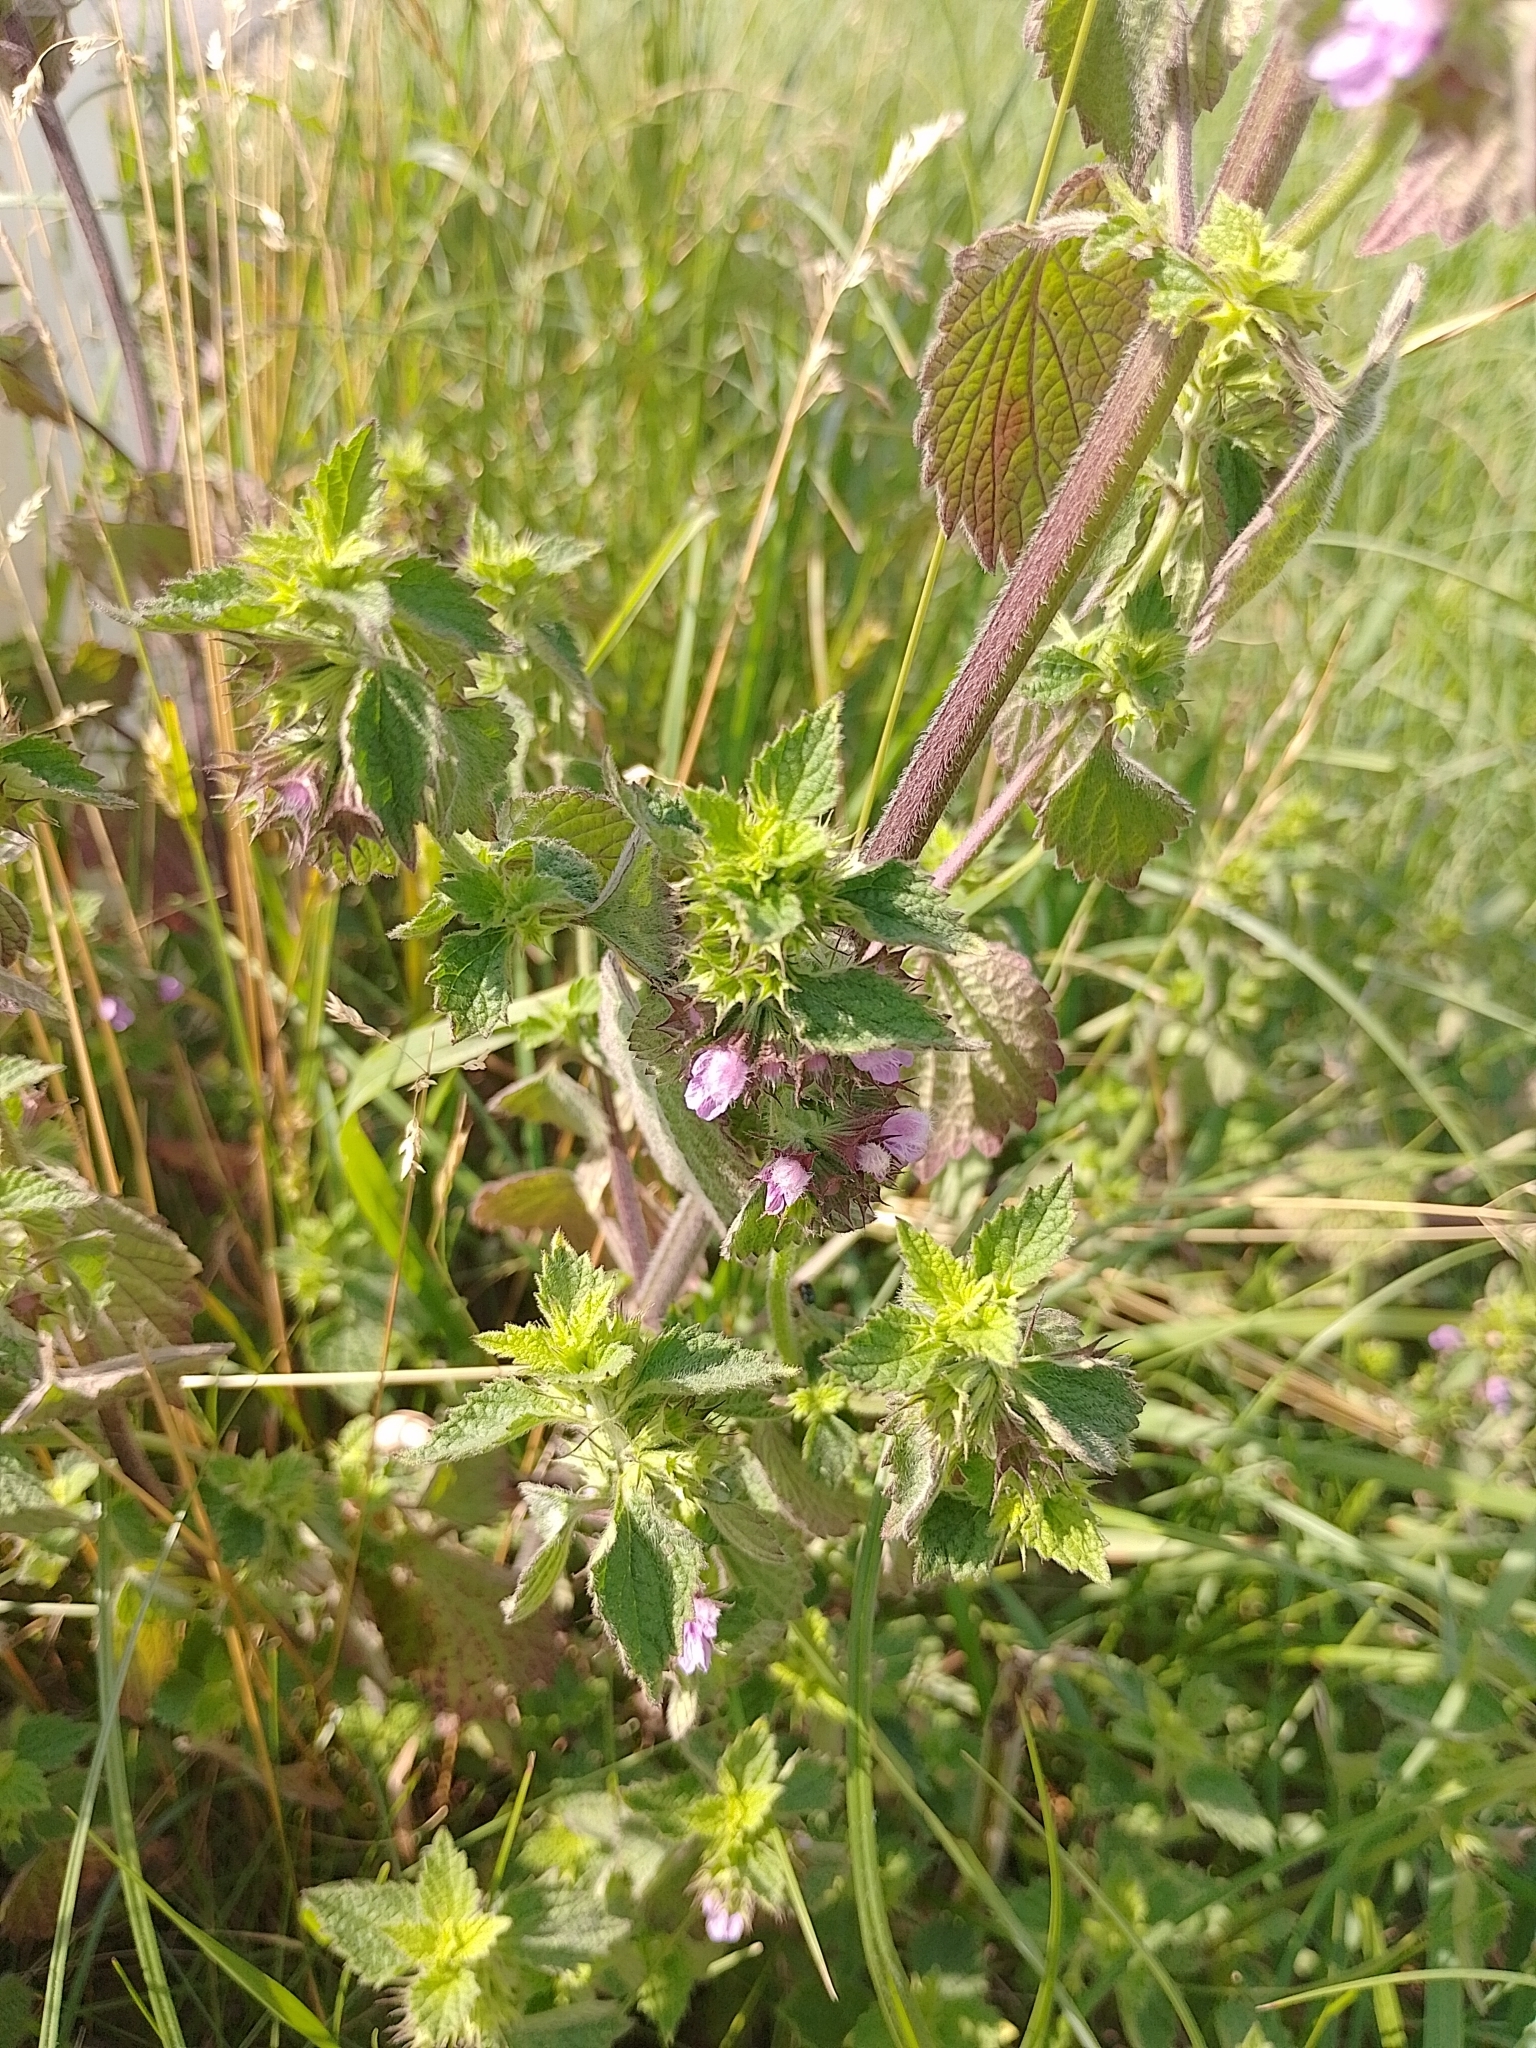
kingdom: Plantae
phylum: Tracheophyta
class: Magnoliopsida
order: Lamiales
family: Lamiaceae
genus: Ballota
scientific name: Ballota nigra
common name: Black horehound
